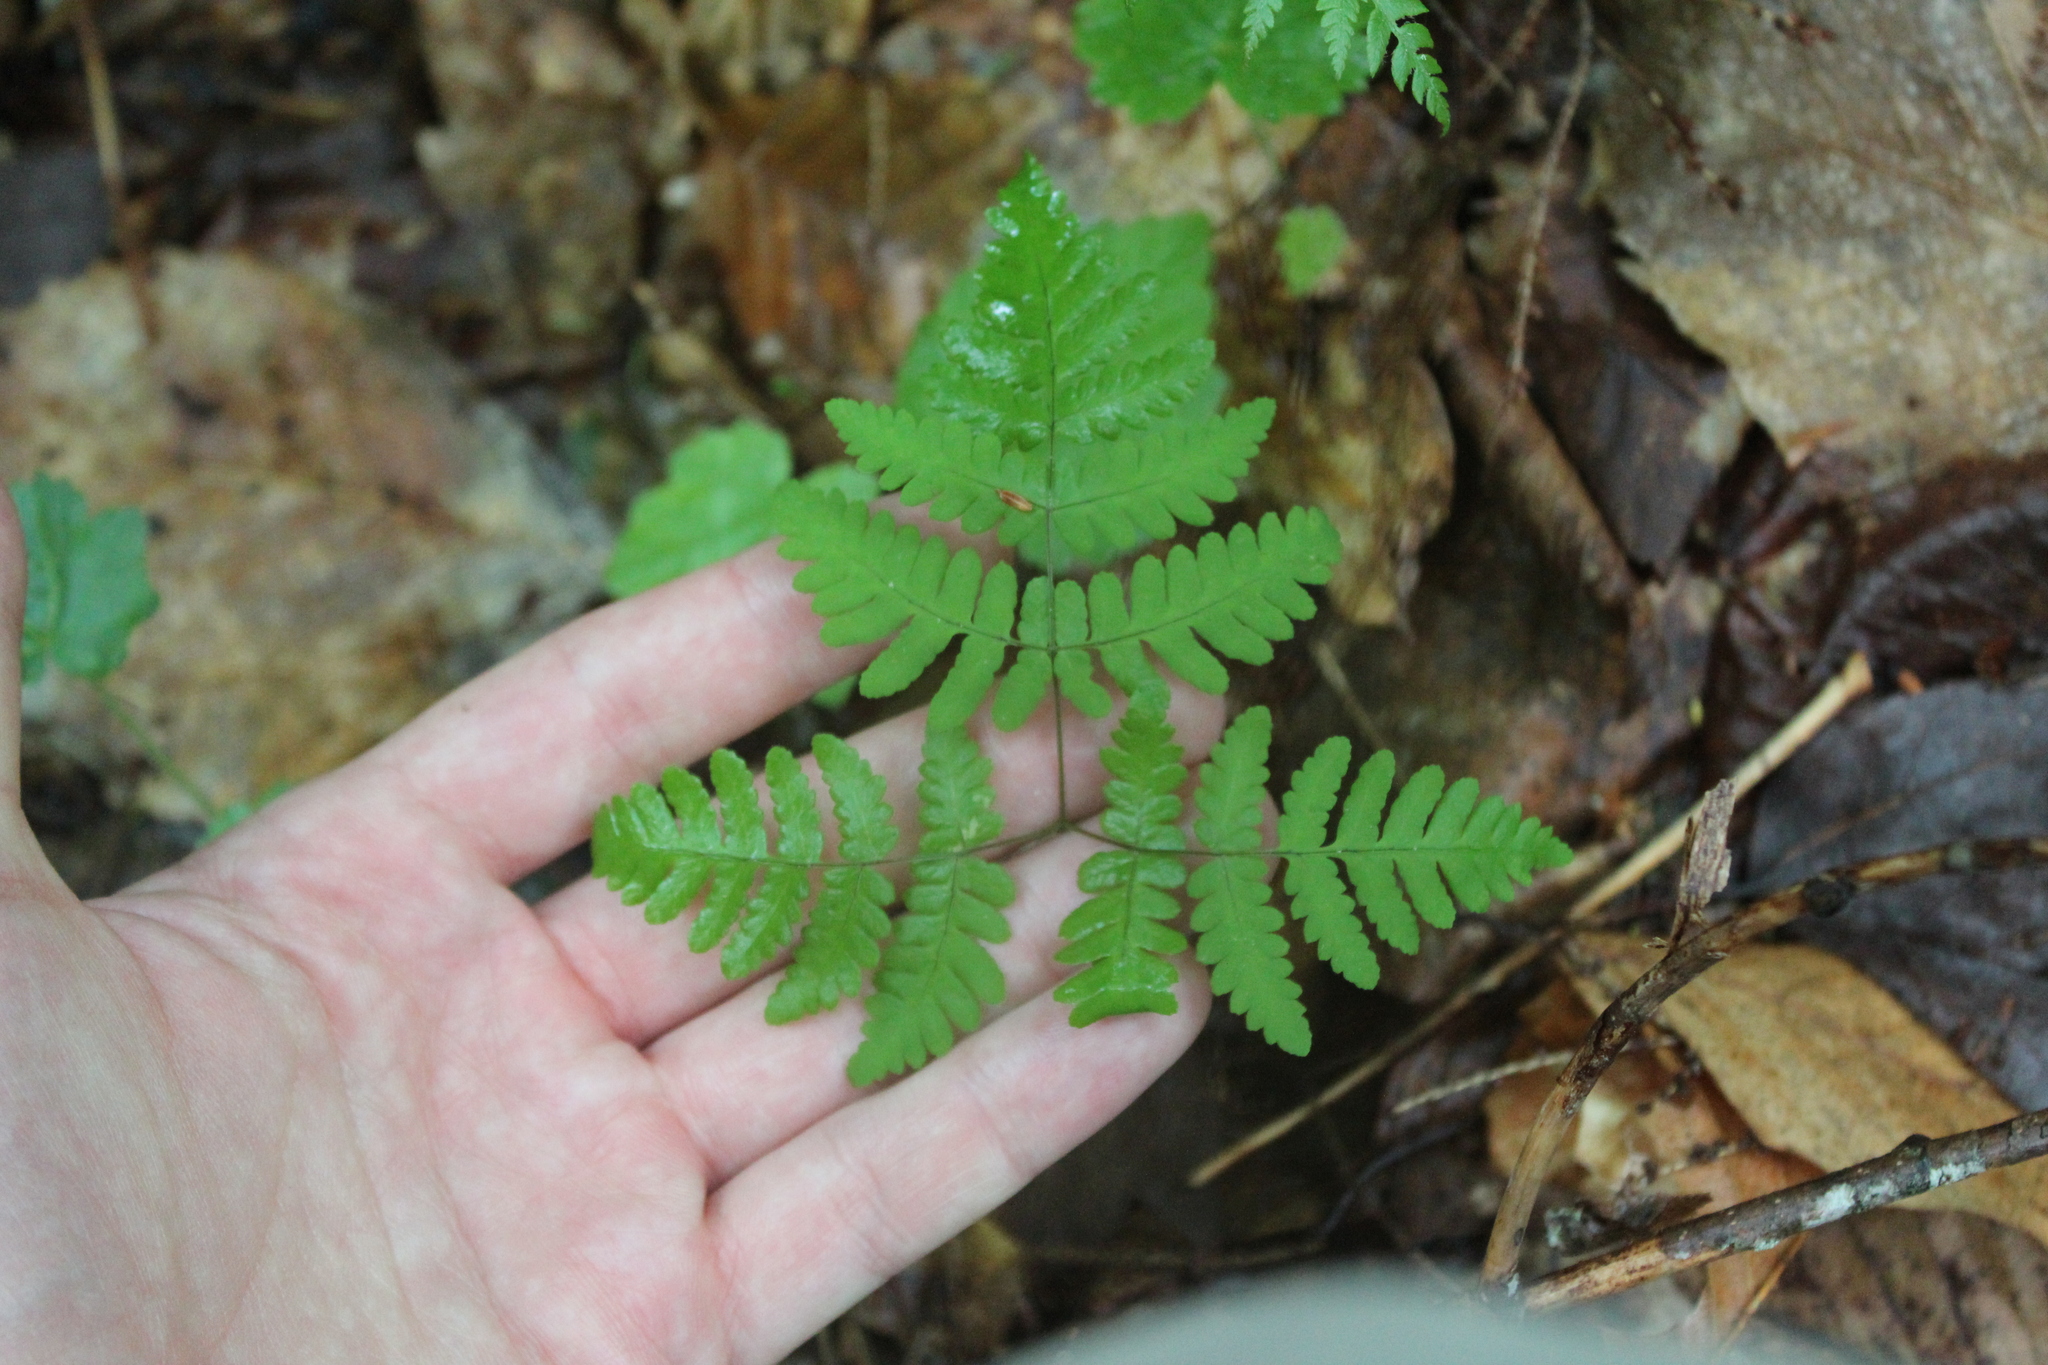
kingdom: Plantae
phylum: Tracheophyta
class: Polypodiopsida
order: Polypodiales
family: Cystopteridaceae
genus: Gymnocarpium
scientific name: Gymnocarpium dryopteris
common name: Oak fern
